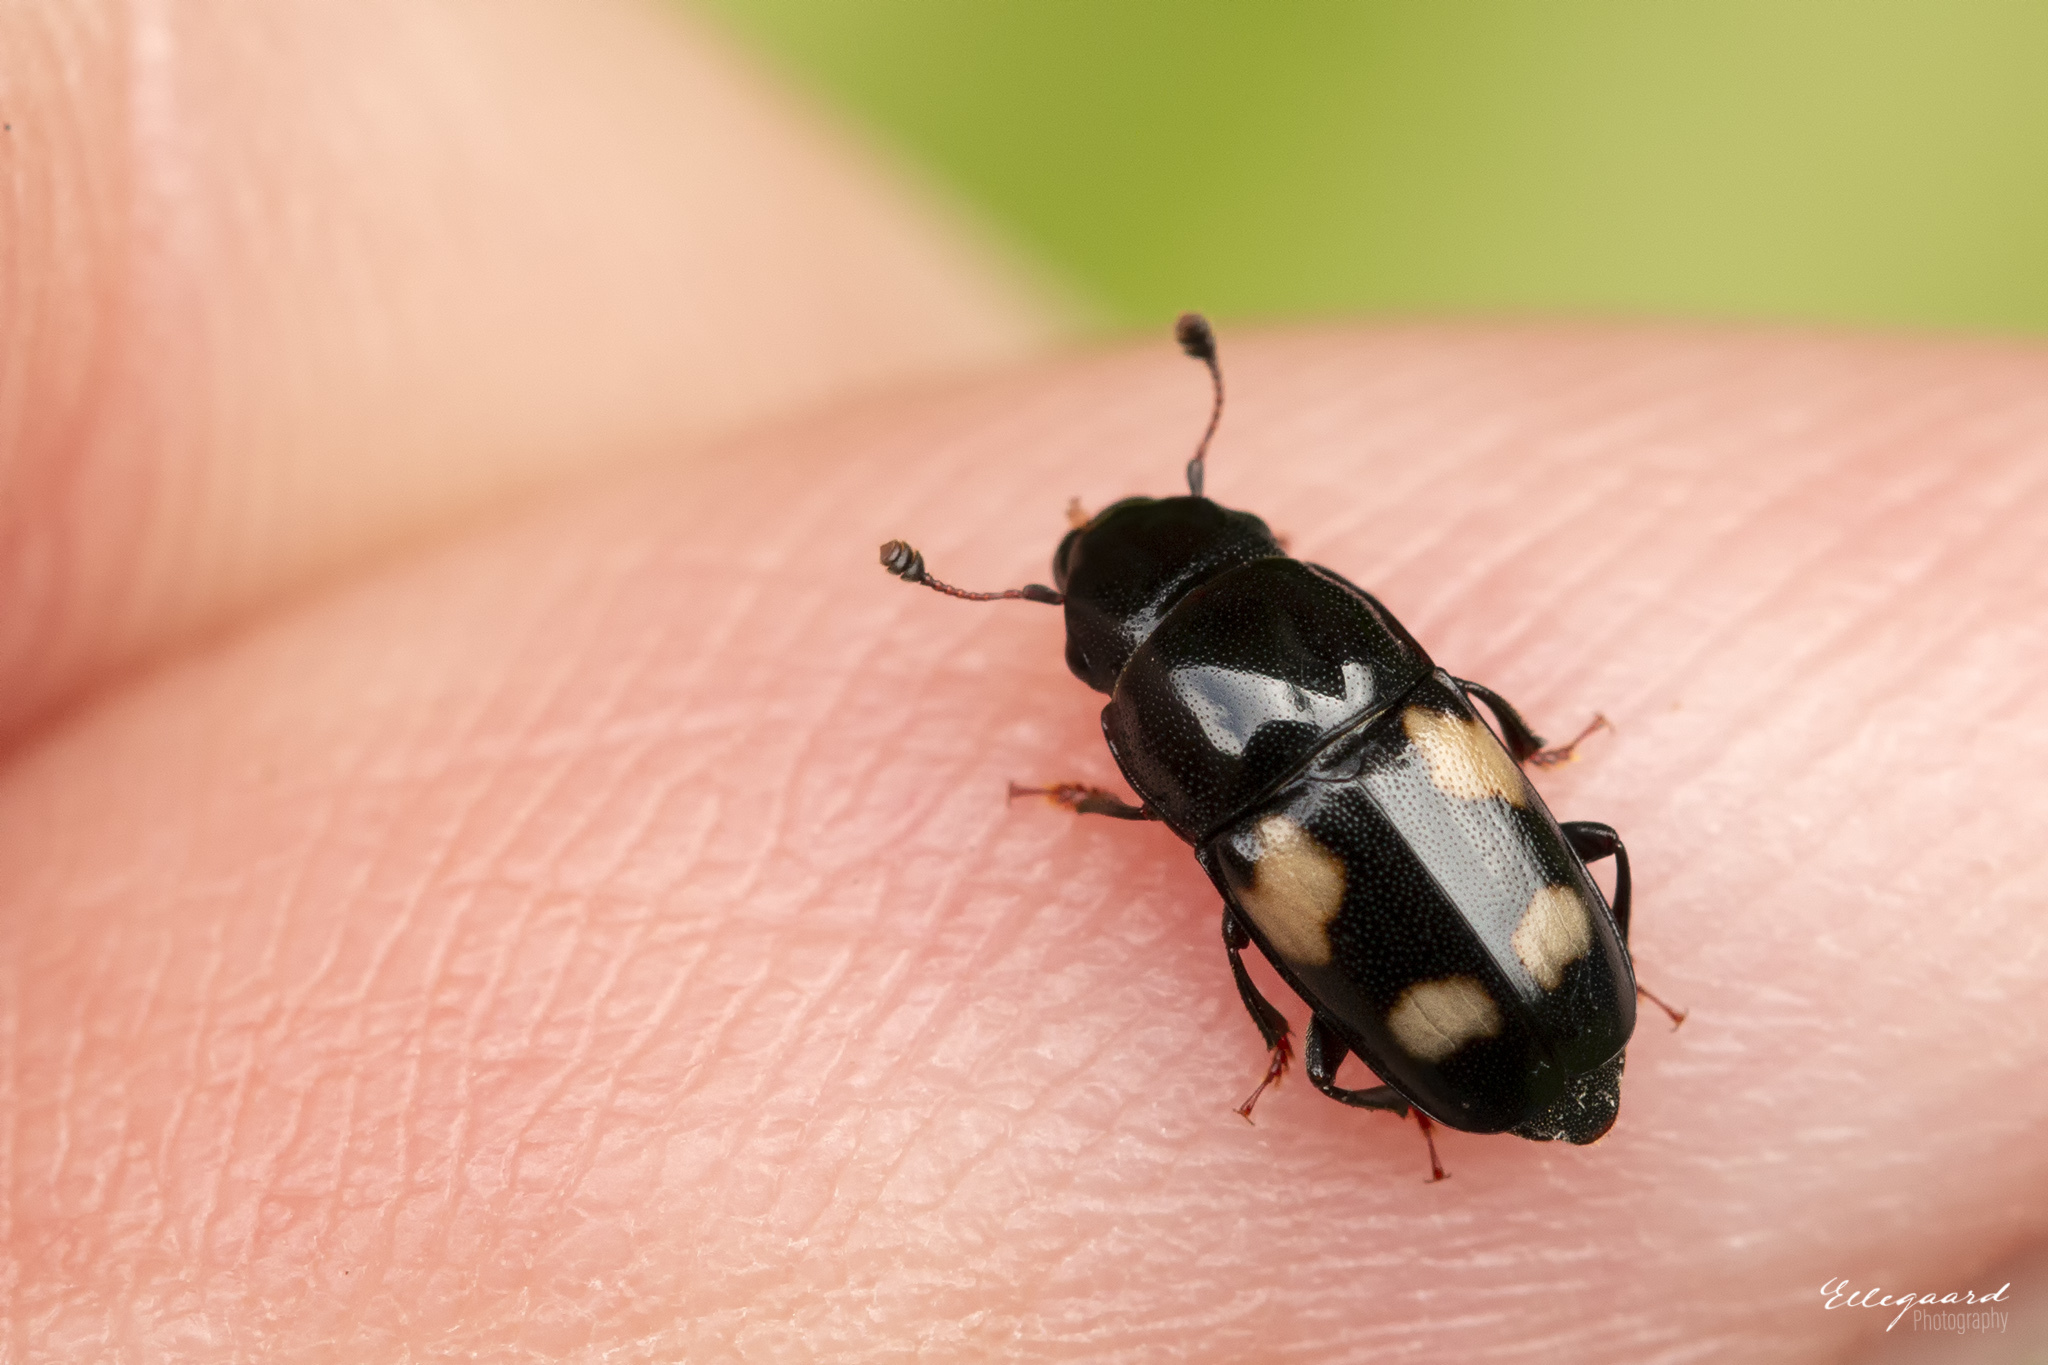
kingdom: Animalia
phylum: Arthropoda
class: Insecta
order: Coleoptera
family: Nitidulidae
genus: Glischrochilus
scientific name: Glischrochilus quadrisignatus
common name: Picnic beetle
